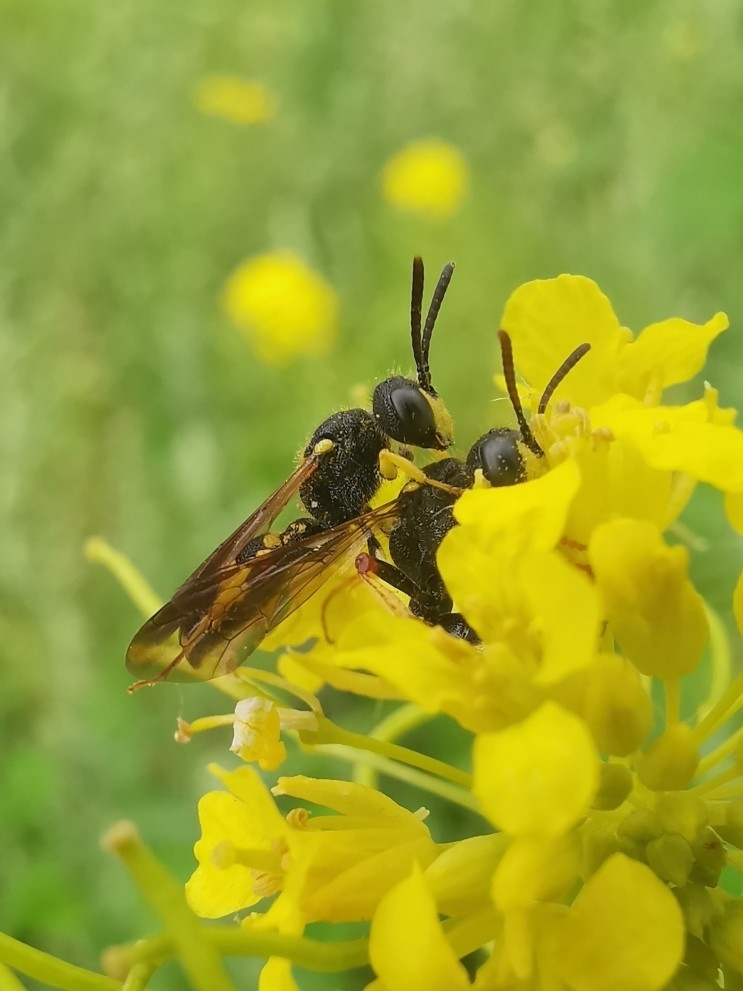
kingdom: Animalia
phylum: Arthropoda
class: Insecta
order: Hymenoptera
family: Crabronidae
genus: Cerceris
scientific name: Cerceris rybyensis
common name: Ornate tailed digger wasp
